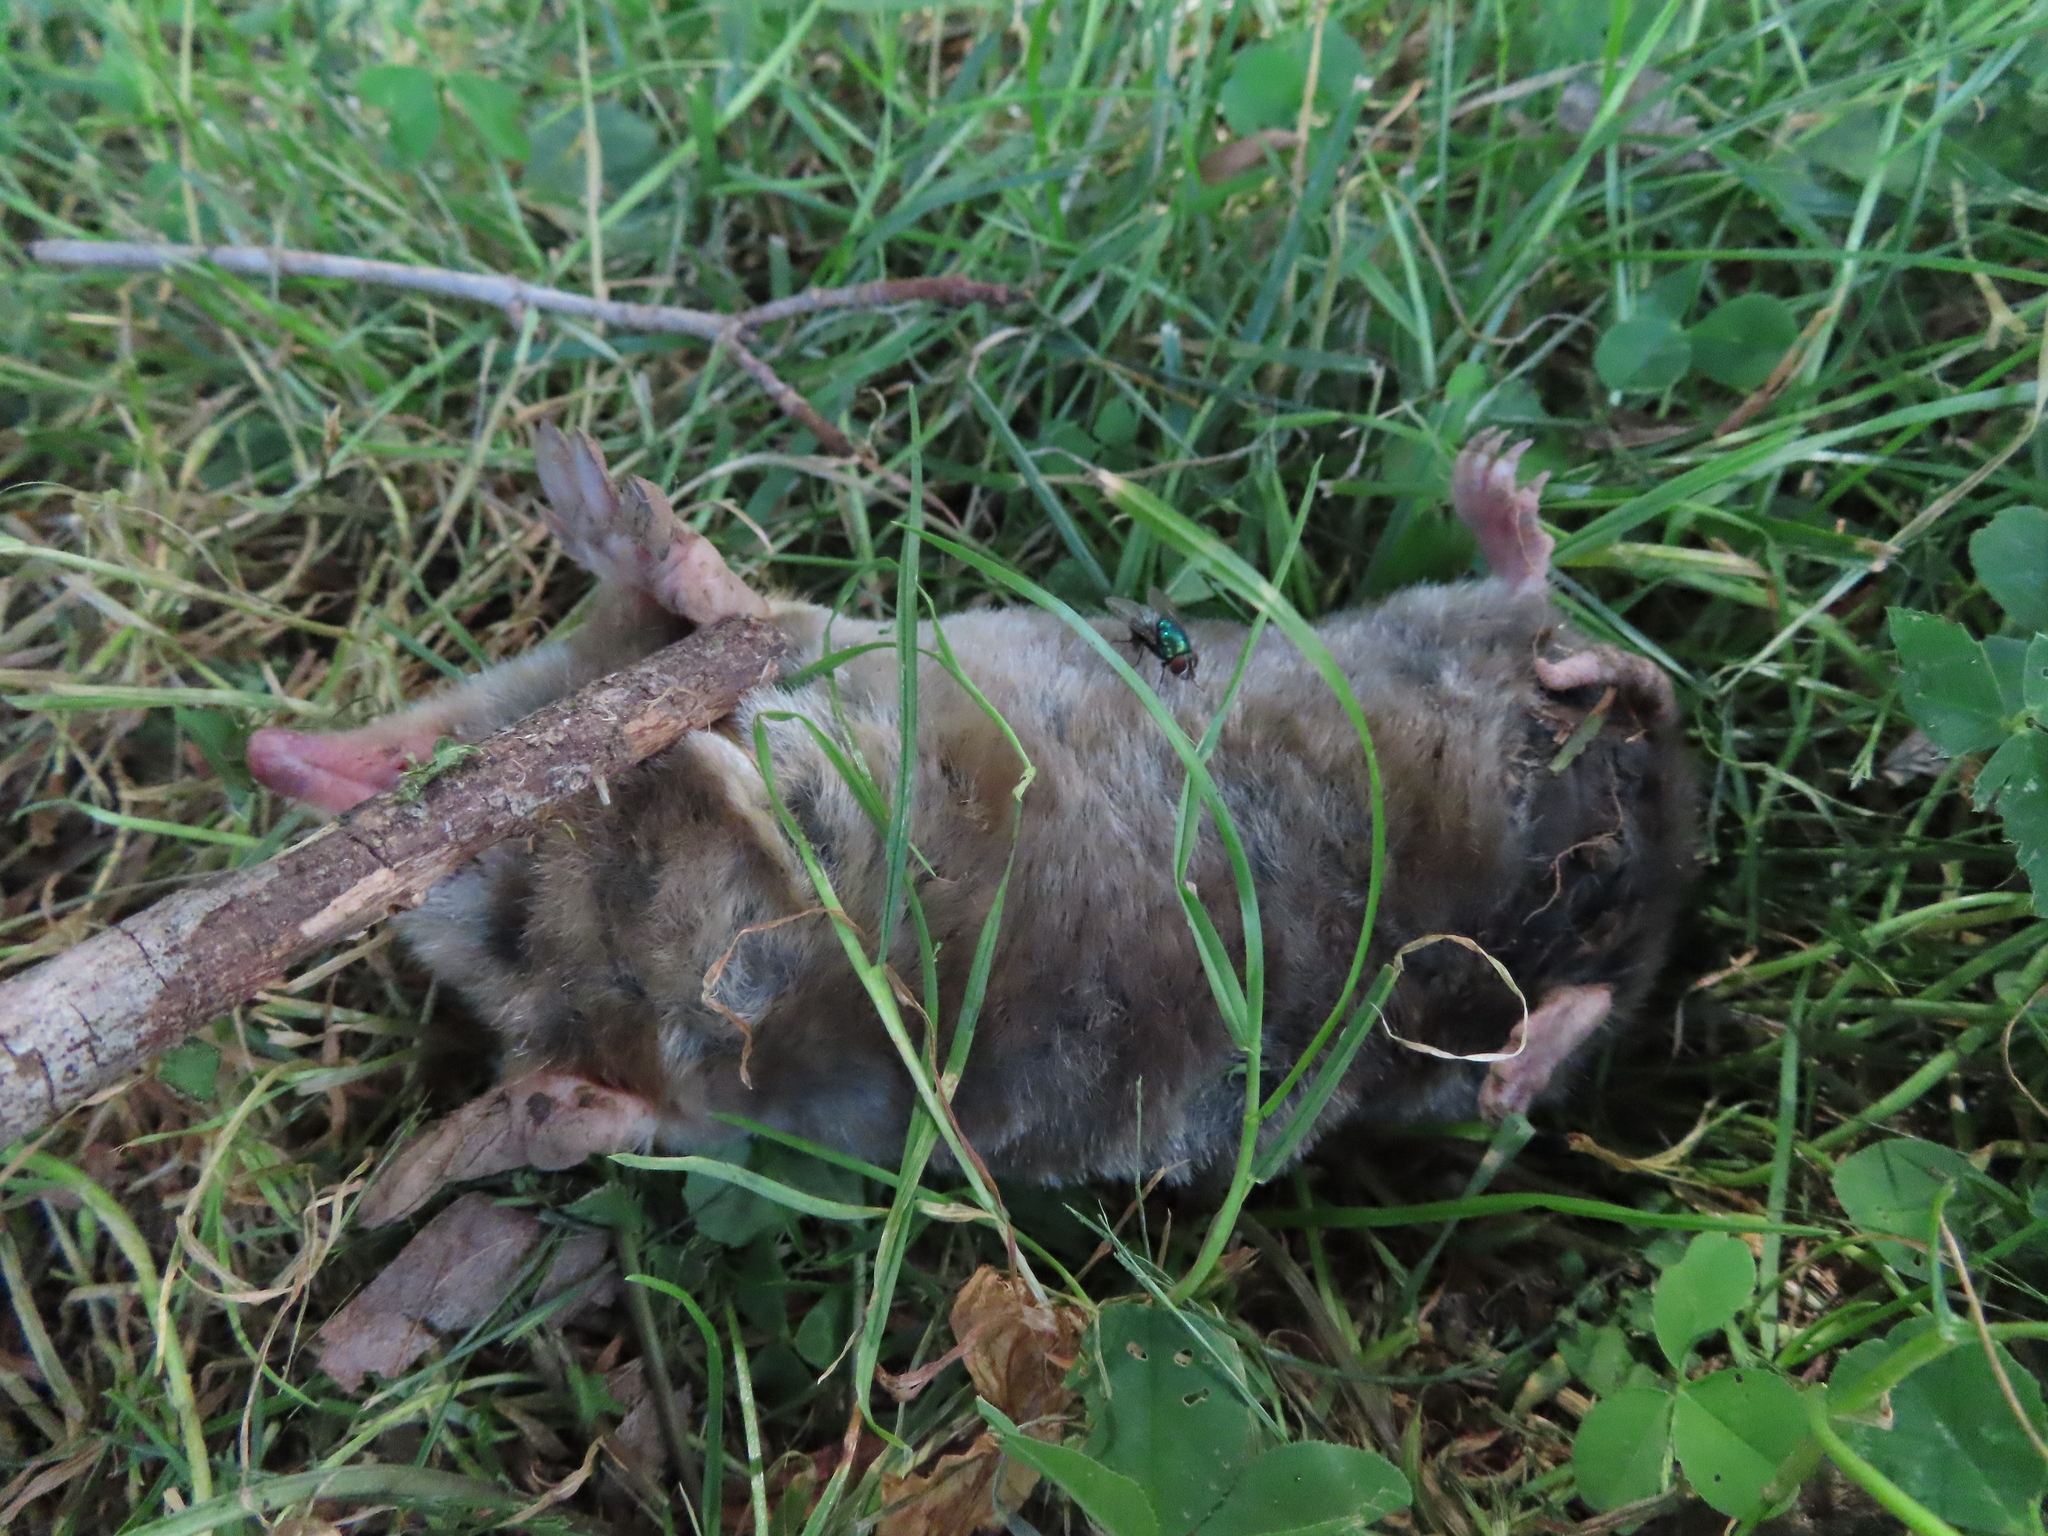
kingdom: Animalia
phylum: Chordata
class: Mammalia
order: Soricomorpha
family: Talpidae
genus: Scalopus
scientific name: Scalopus aquaticus
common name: Eastern mole
